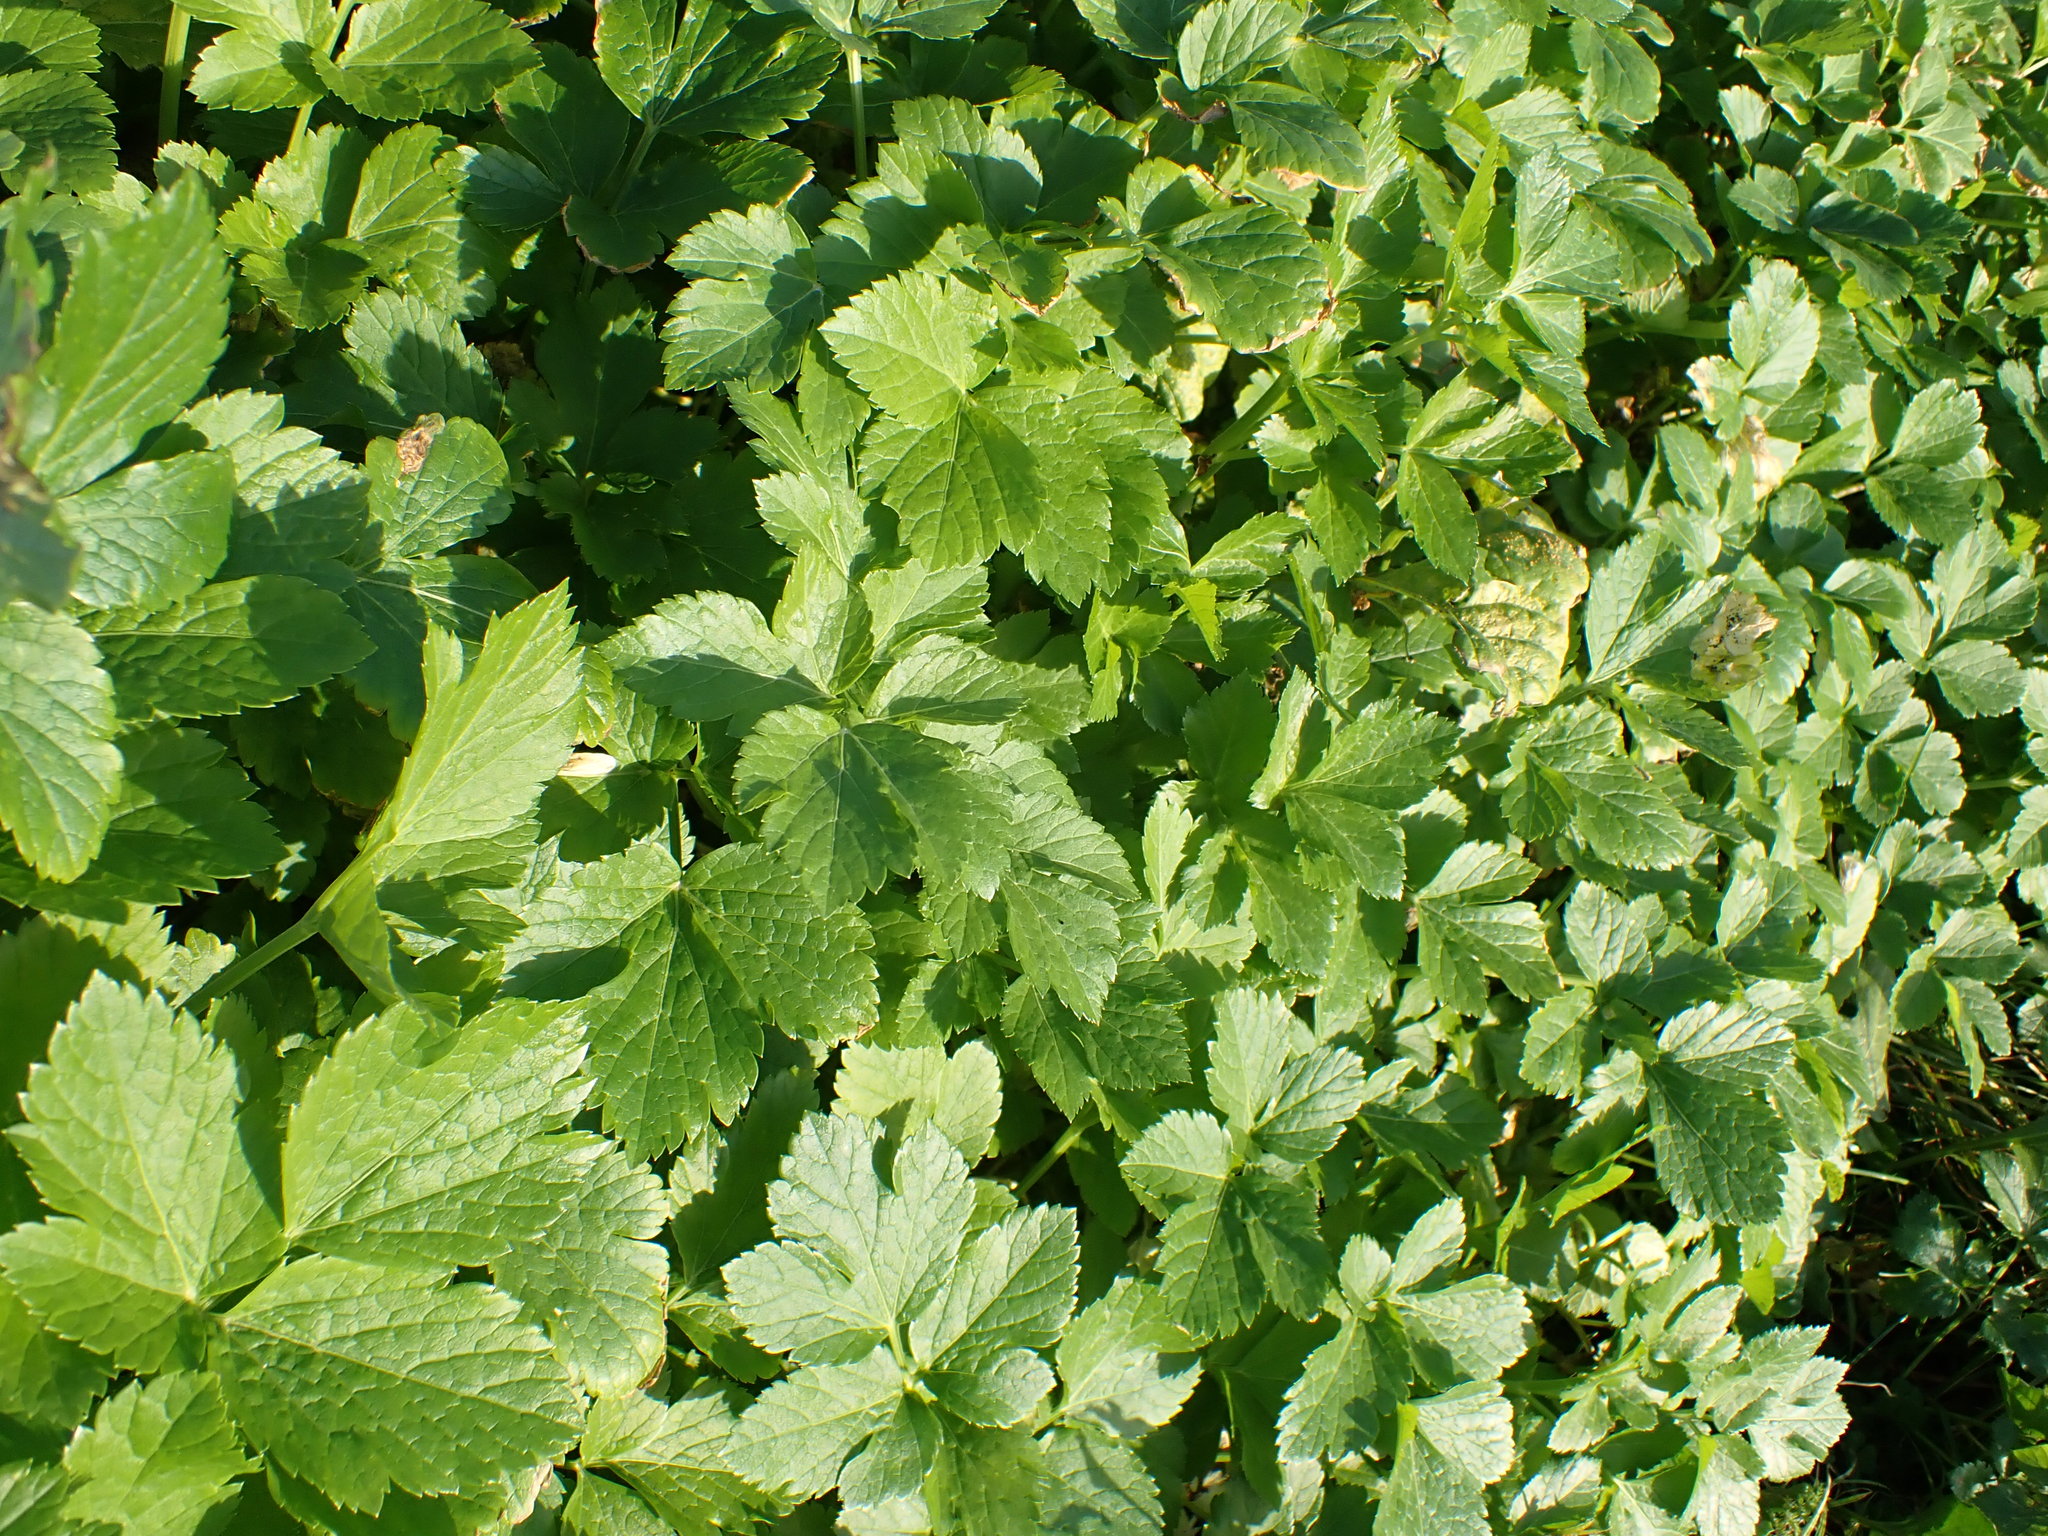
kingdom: Plantae
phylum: Tracheophyta
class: Magnoliopsida
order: Apiales
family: Apiaceae
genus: Smyrnium
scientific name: Smyrnium olusatrum
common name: Alexanders
